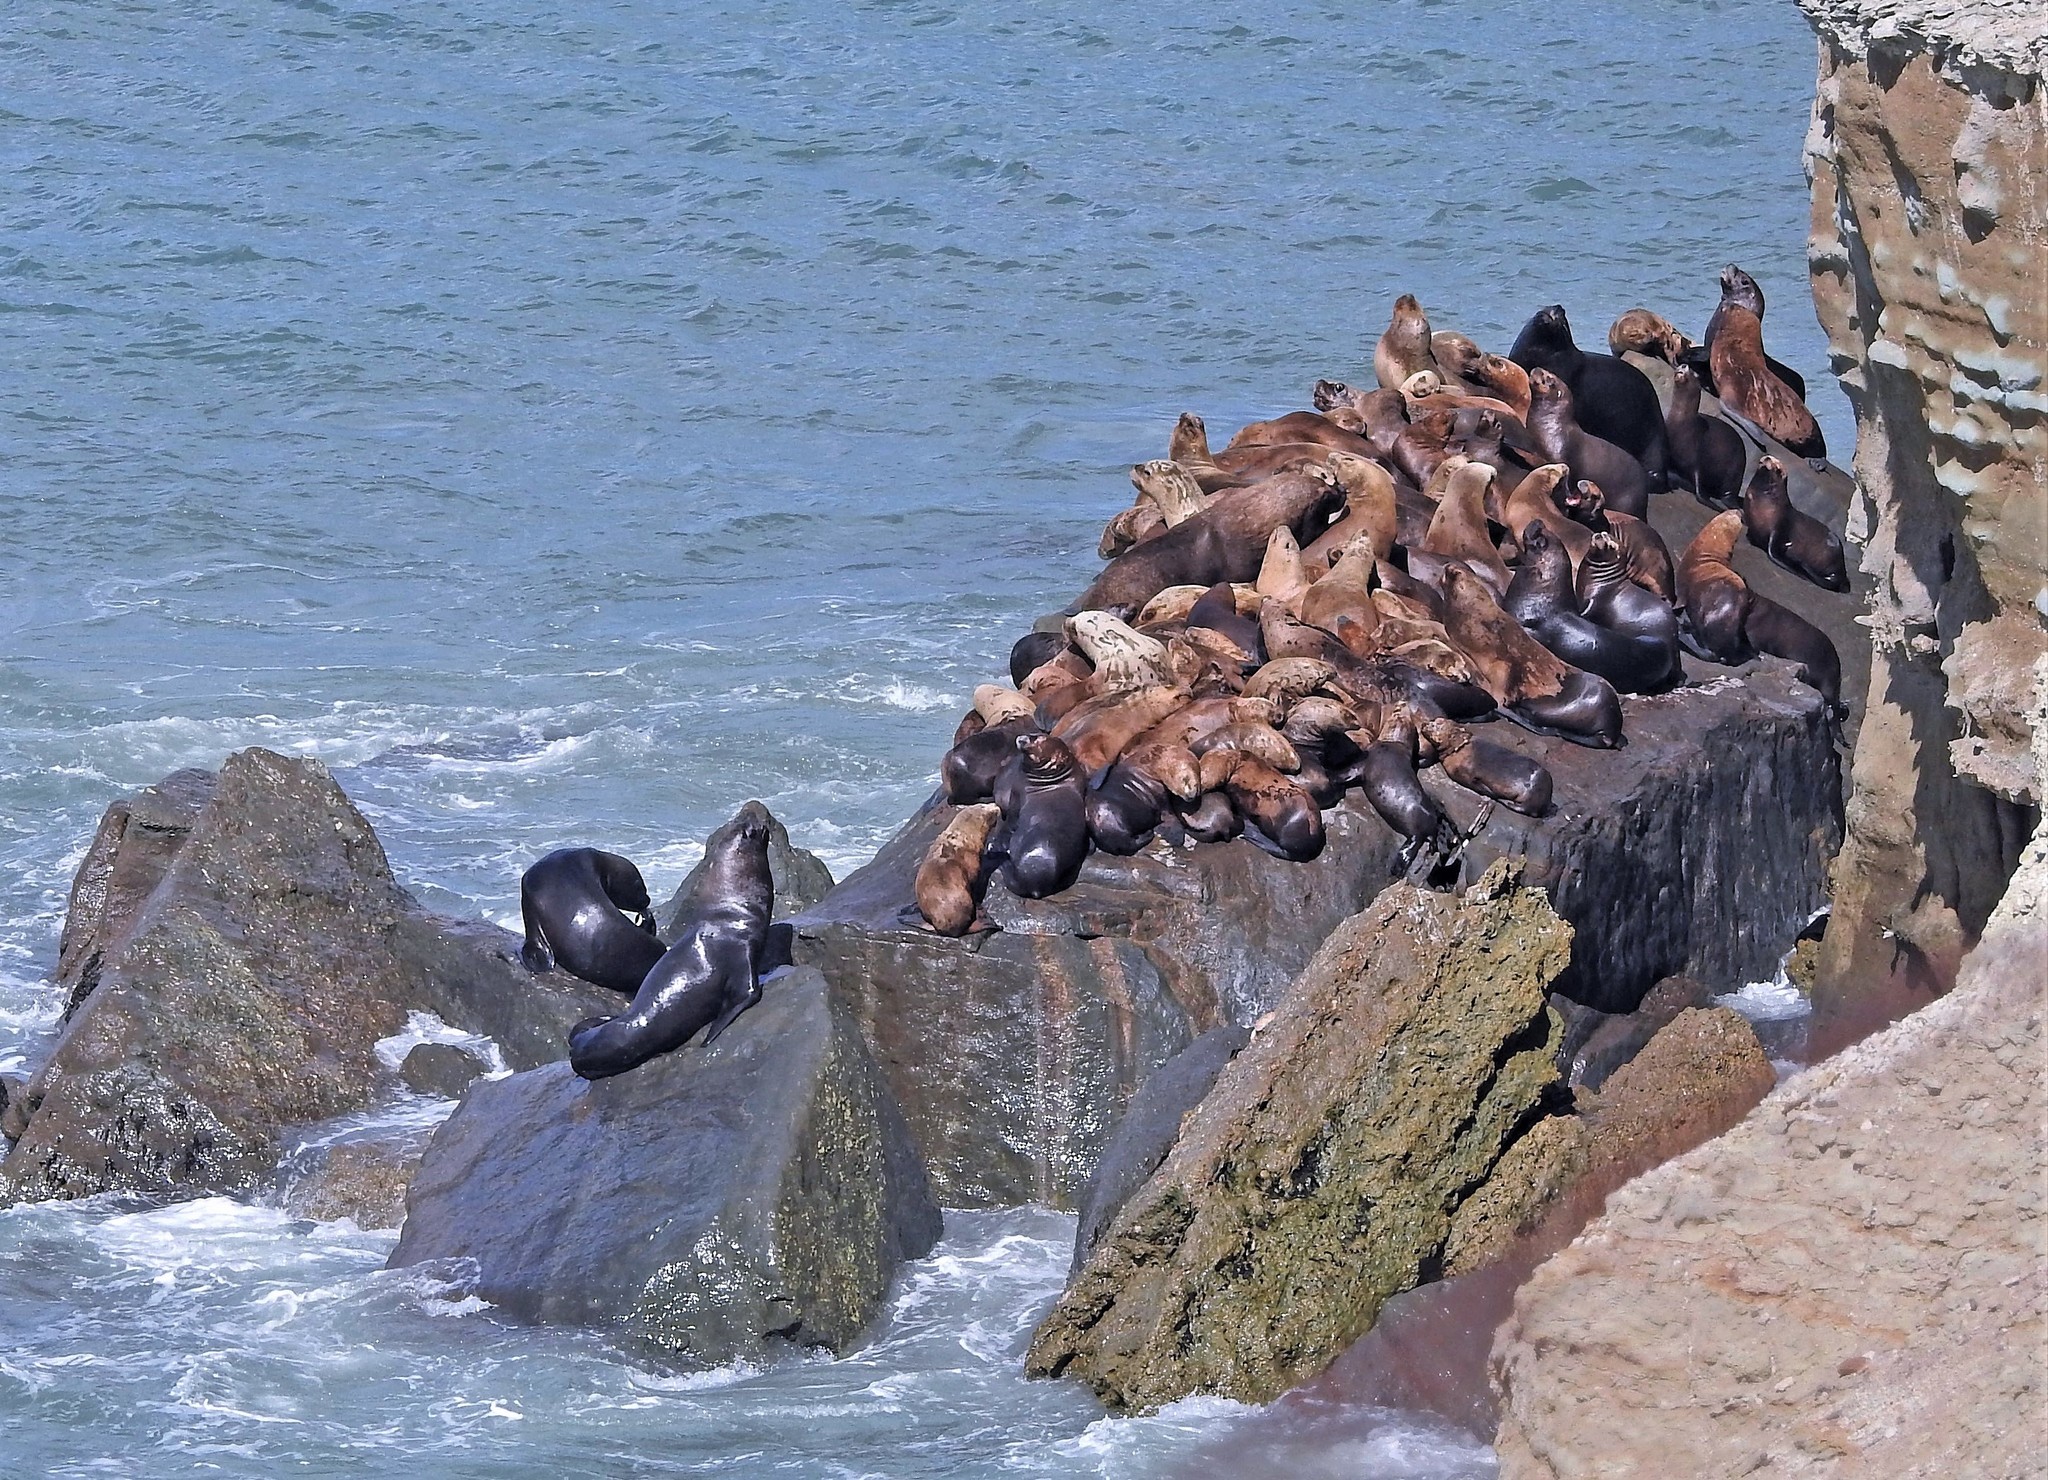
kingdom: Animalia
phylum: Chordata
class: Mammalia
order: Carnivora
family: Otariidae
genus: Otaria
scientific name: Otaria byronia
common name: South american sea lion
